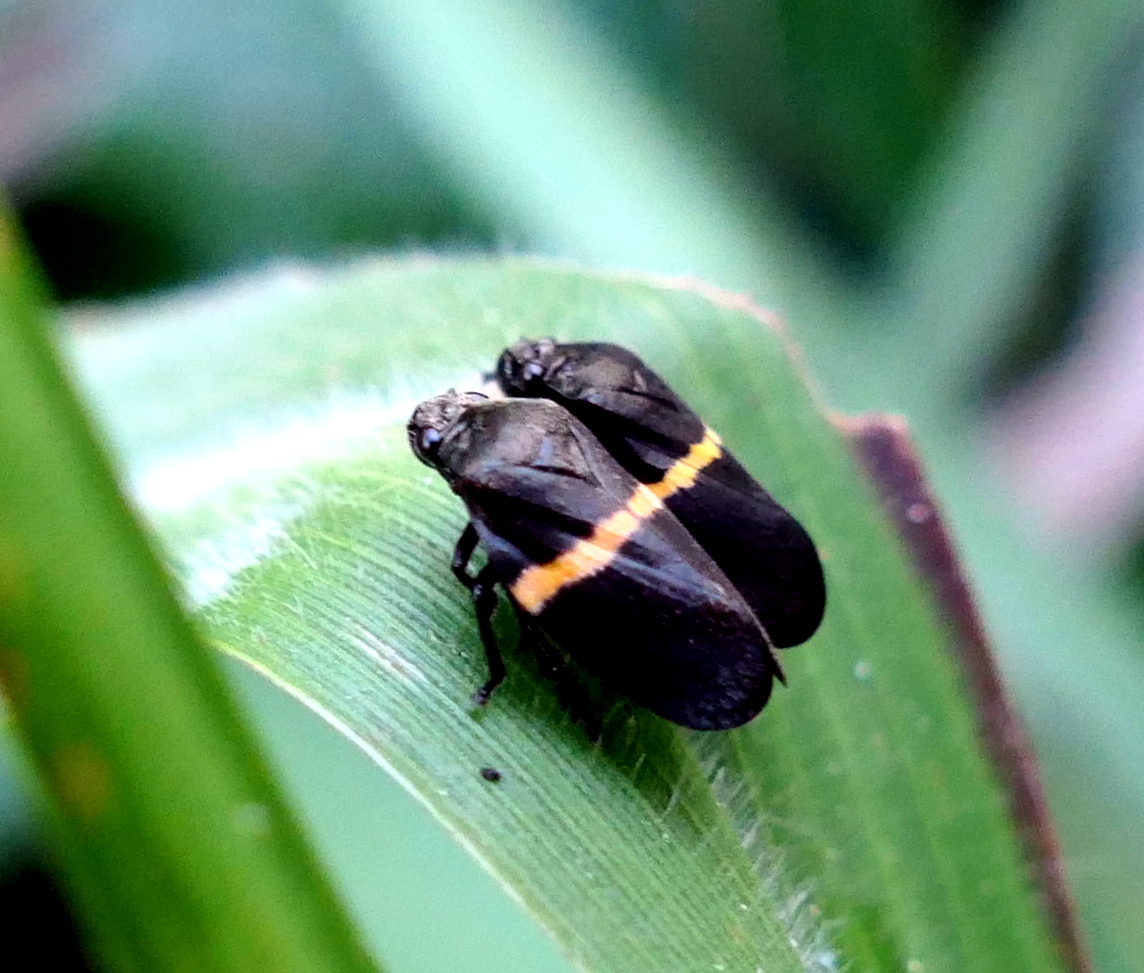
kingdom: Animalia
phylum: Arthropoda
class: Insecta
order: Hemiptera
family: Cercopidae
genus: Aeneolamia
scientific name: Aeneolamia colon
